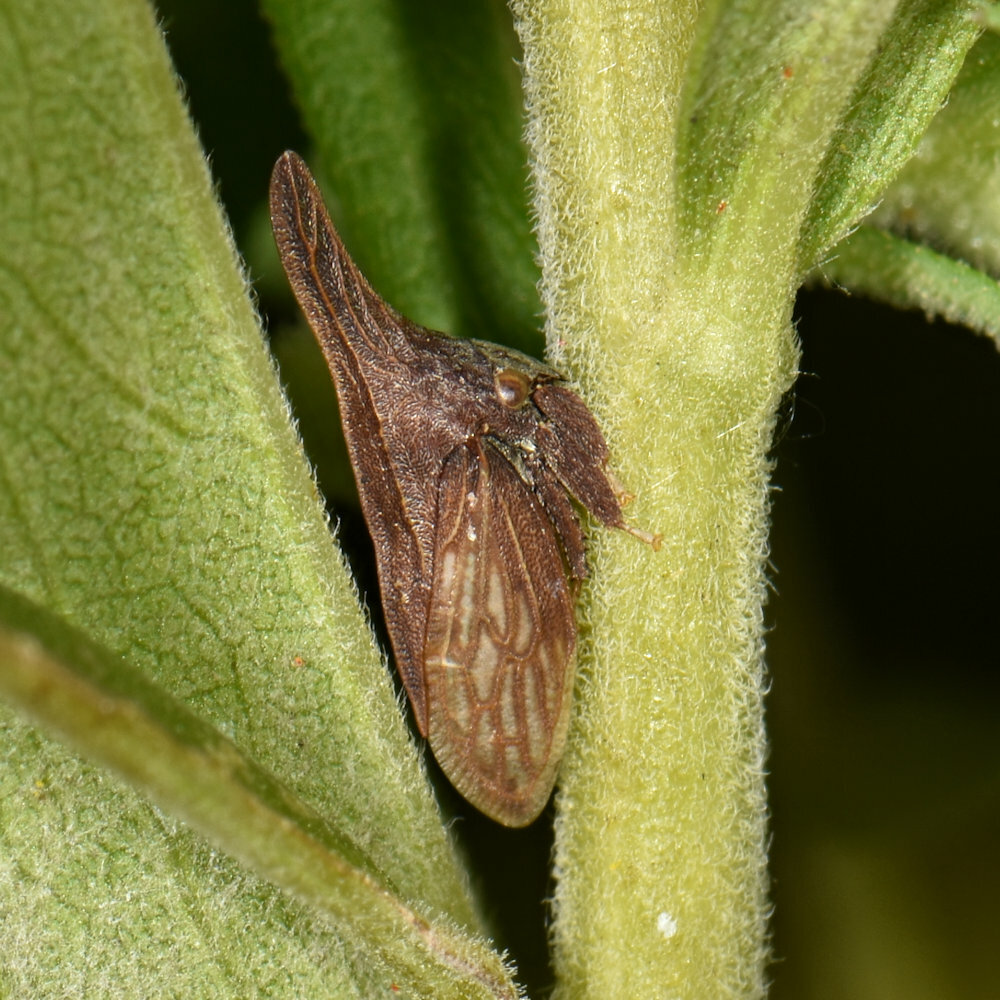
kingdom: Animalia
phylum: Arthropoda
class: Insecta
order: Hemiptera
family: Membracidae
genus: Enchenopa
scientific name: Enchenopa latipes
